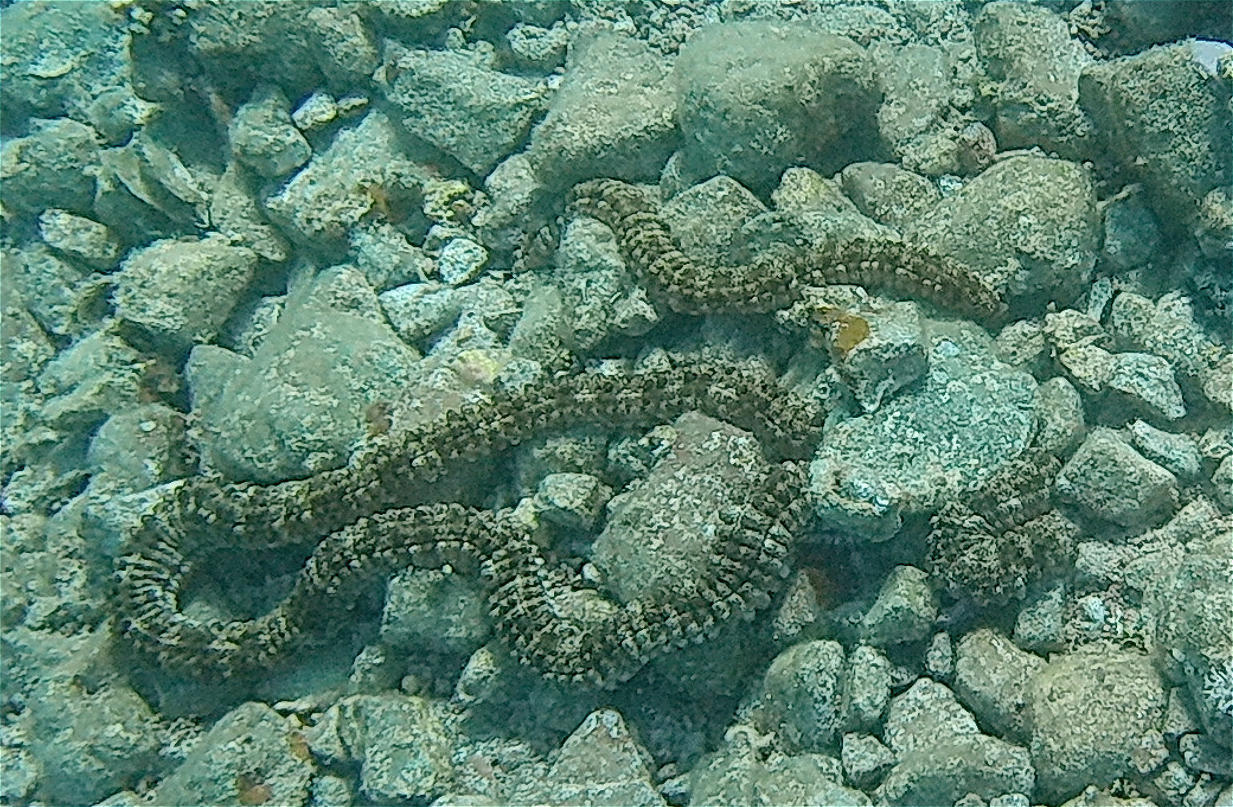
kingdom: Animalia
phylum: Echinodermata
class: Holothuroidea
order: Apodida
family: Synaptidae
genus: Synapta
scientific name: Synapta maculata
